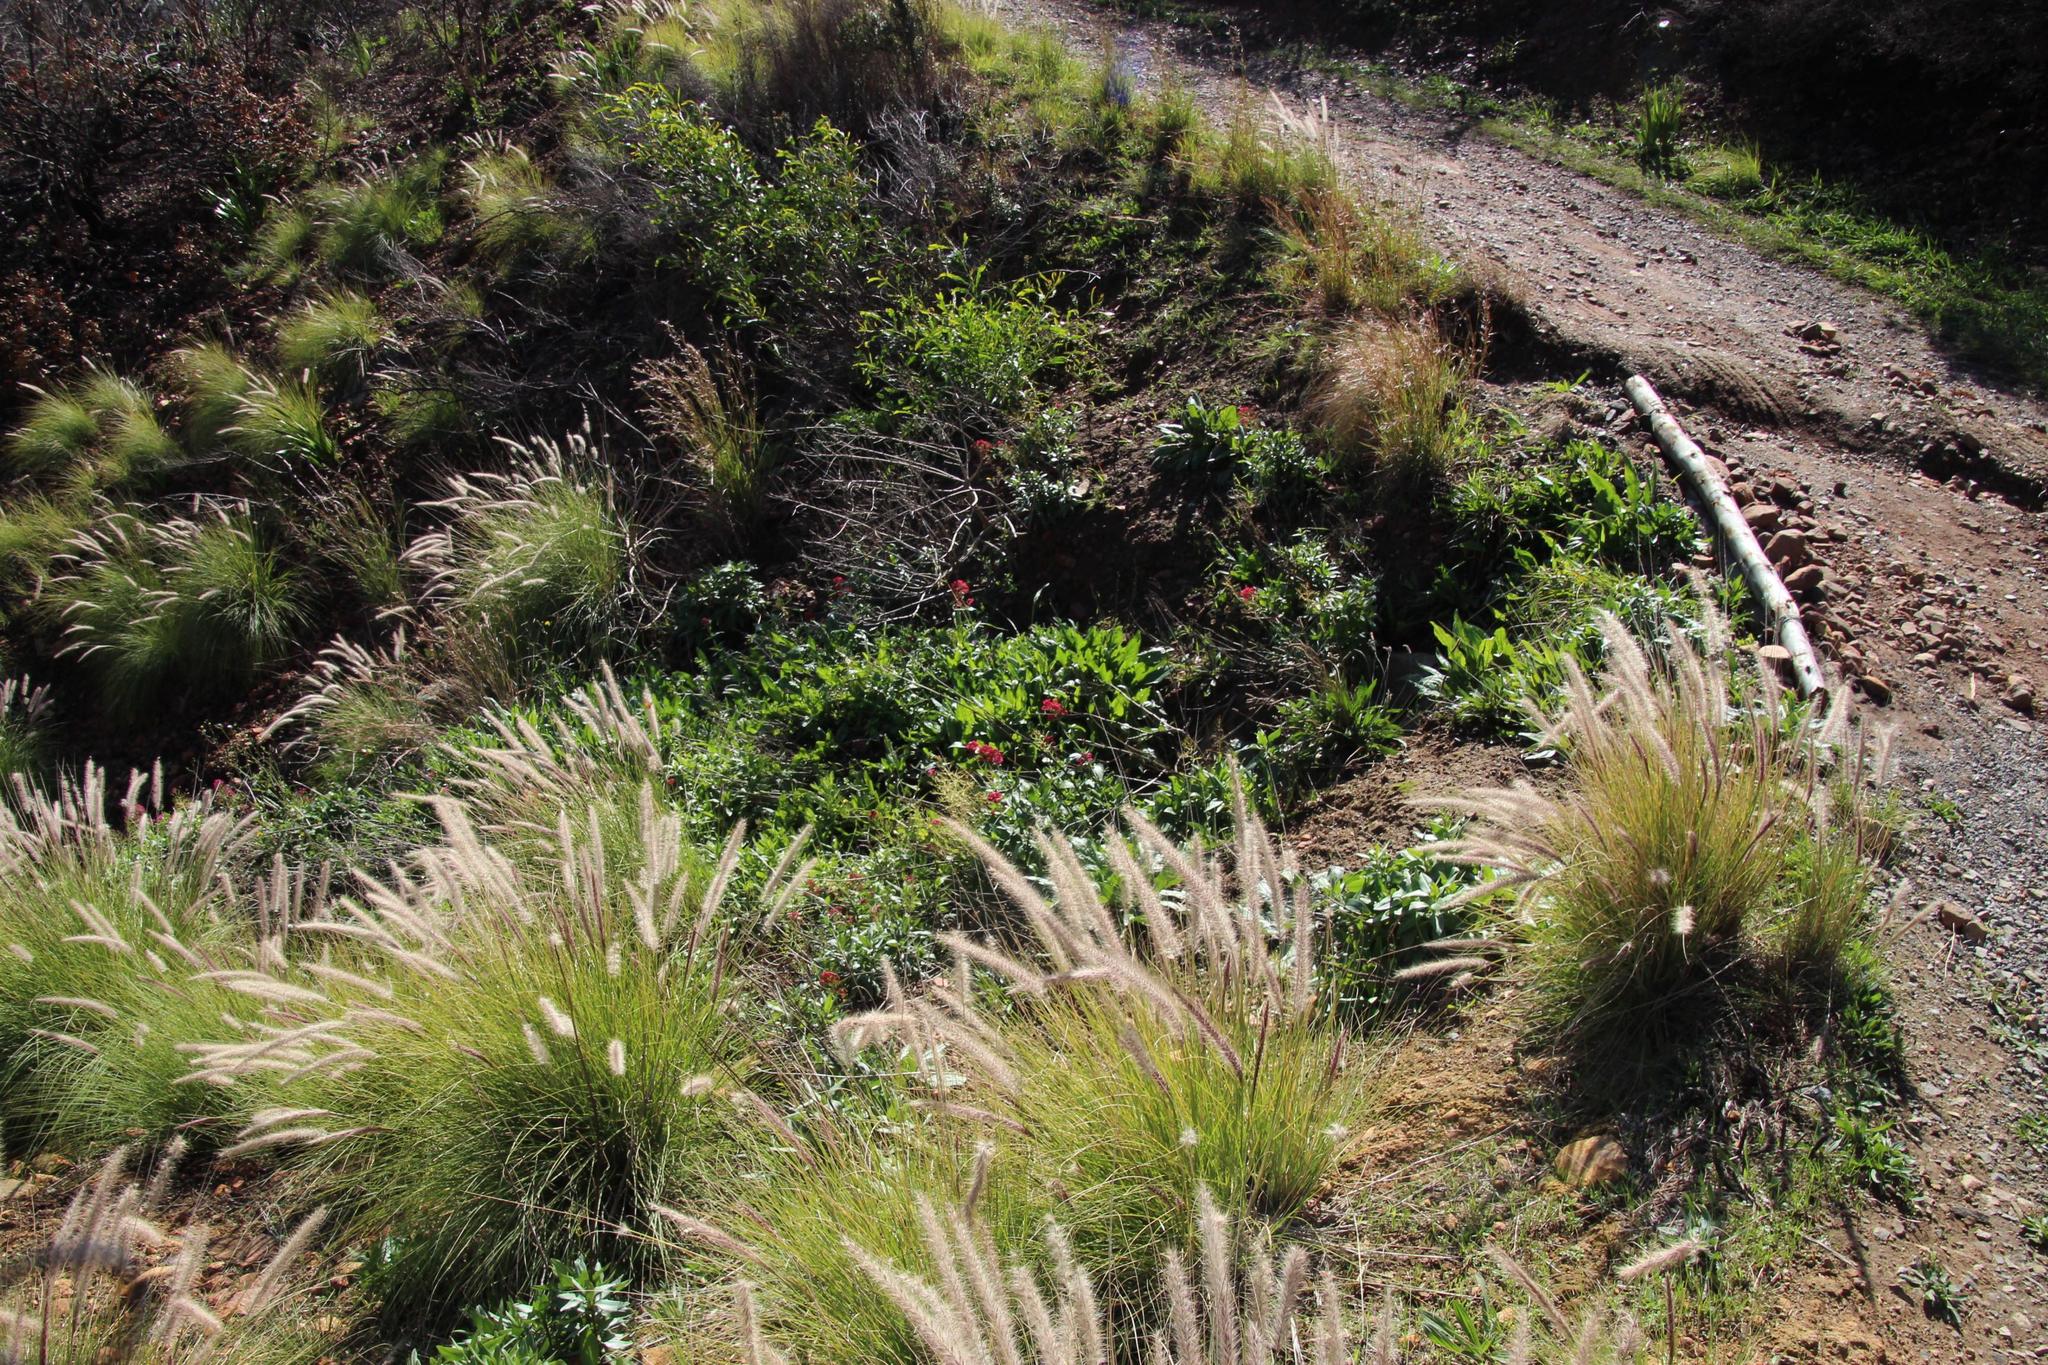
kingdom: Plantae
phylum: Tracheophyta
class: Magnoliopsida
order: Dipsacales
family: Caprifoliaceae
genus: Centranthus
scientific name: Centranthus ruber
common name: Red valerian
